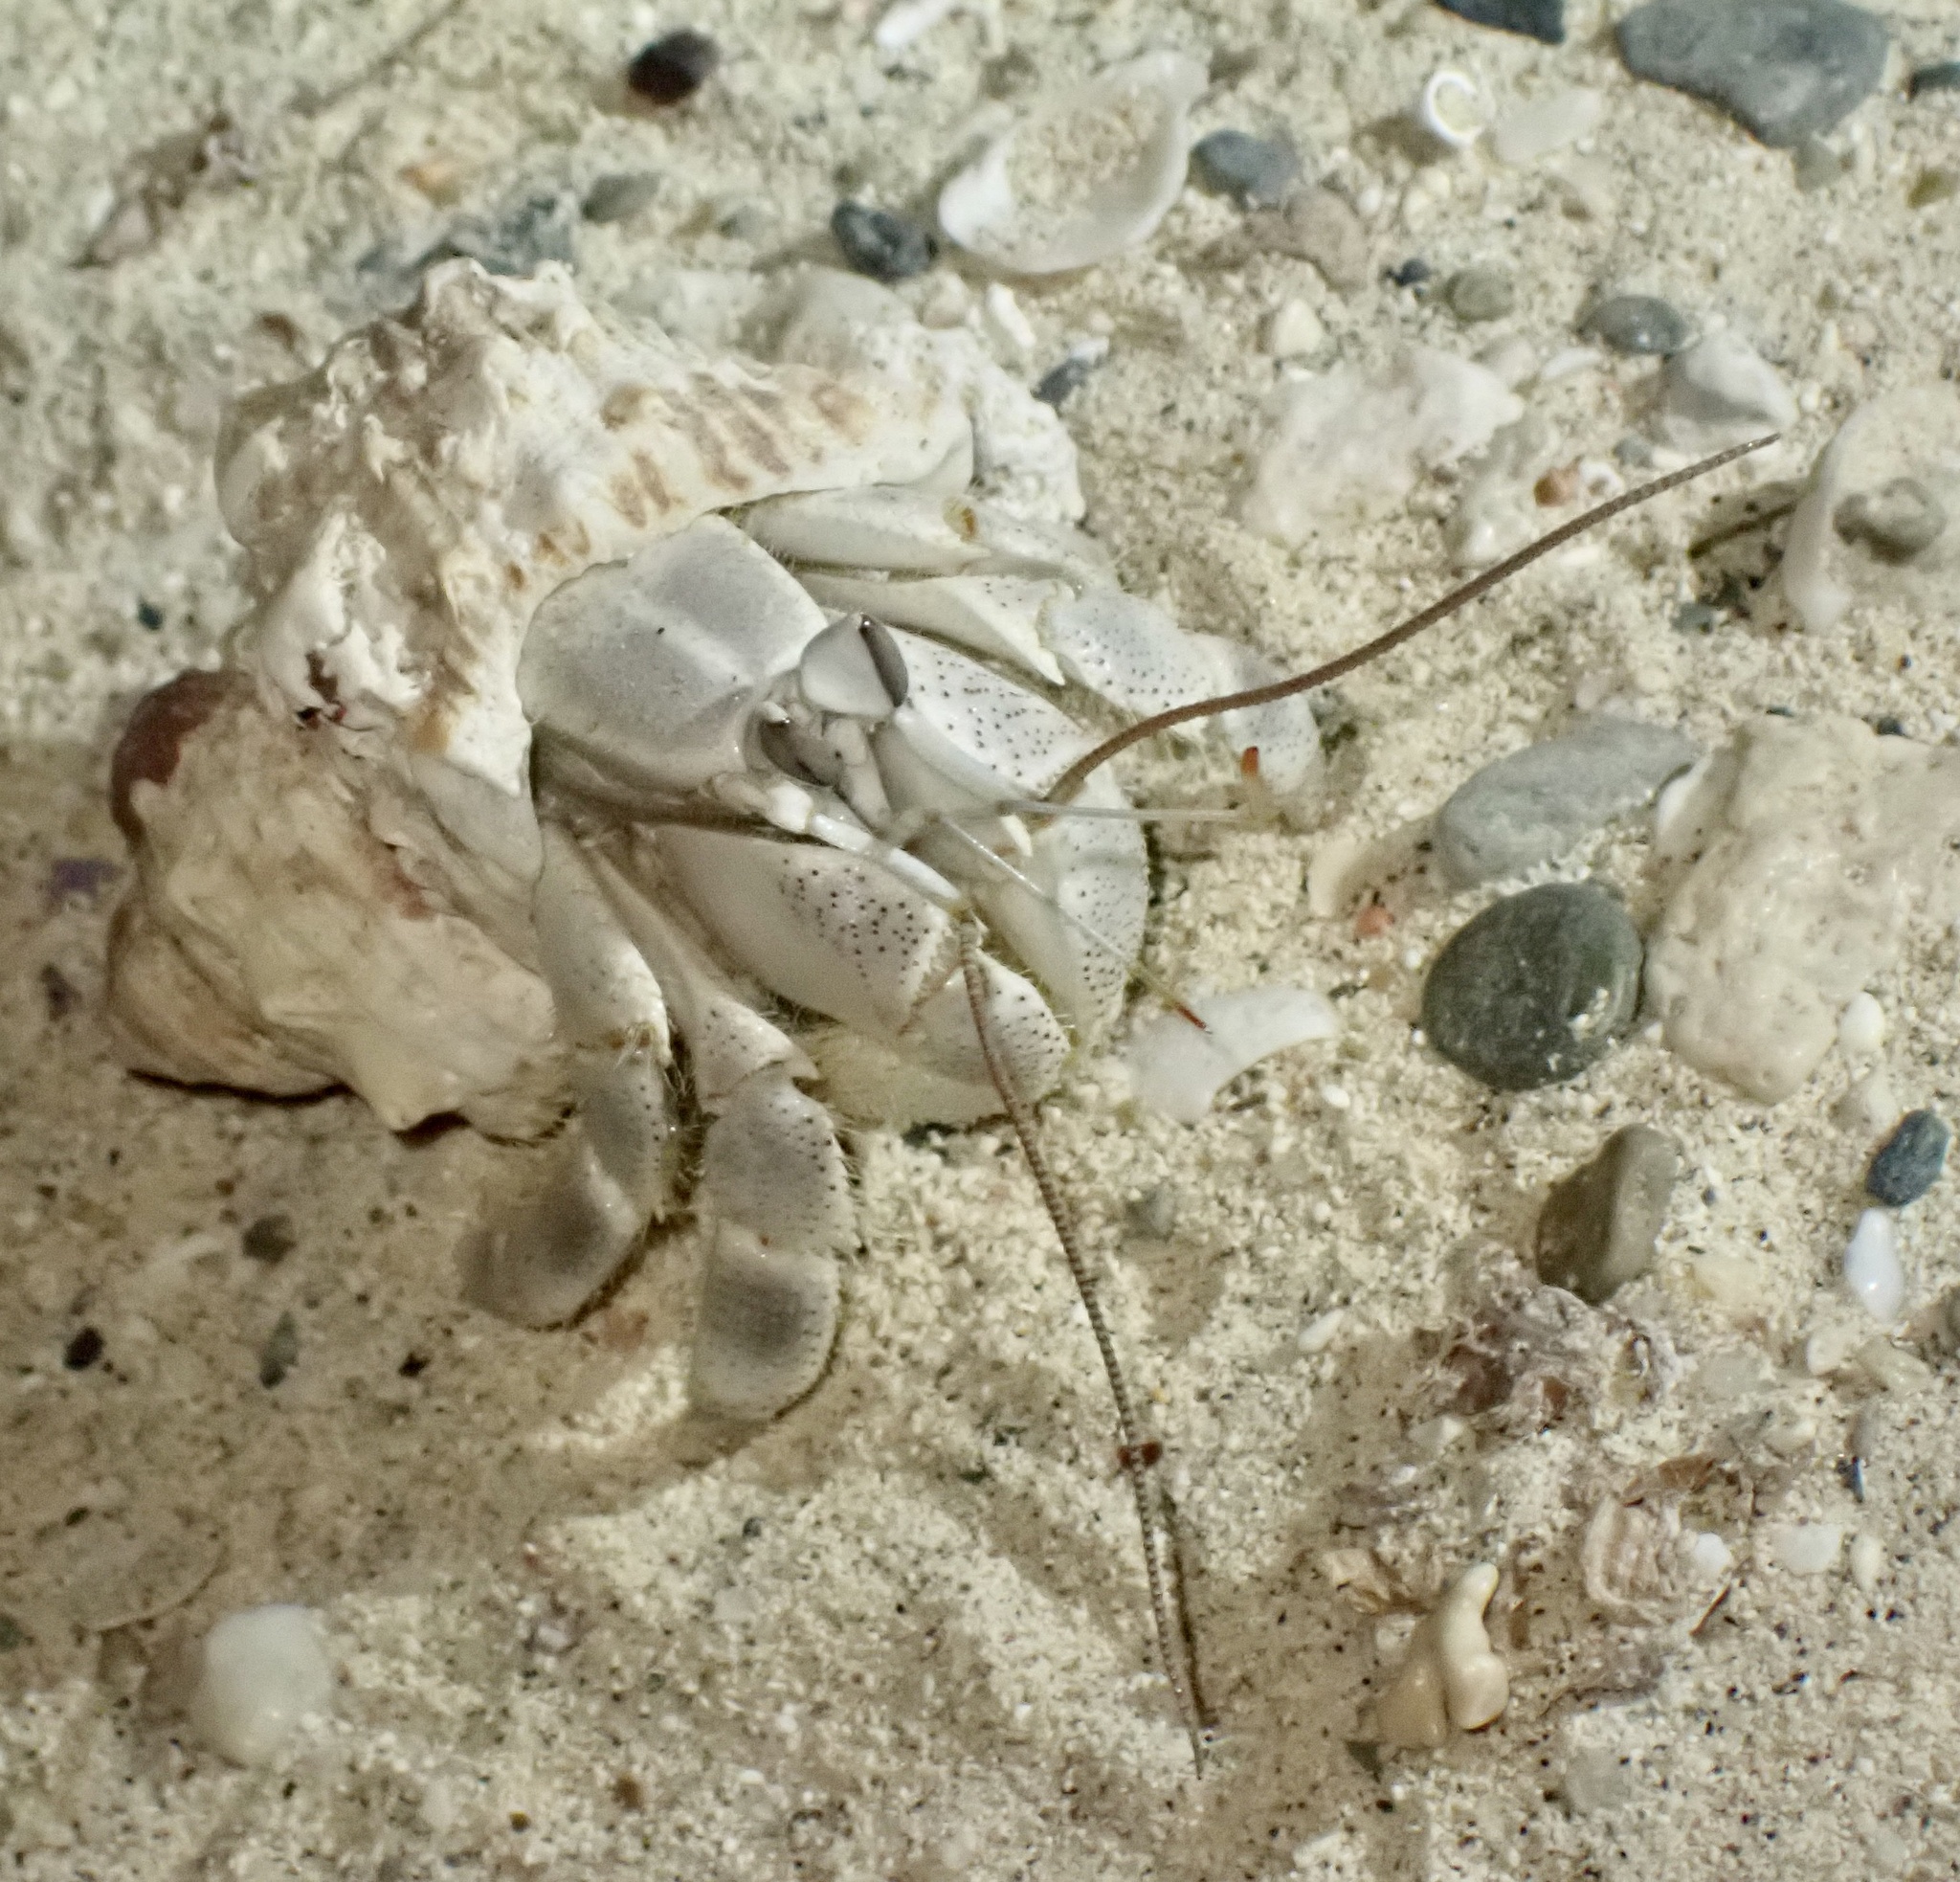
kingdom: Animalia
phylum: Arthropoda
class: Malacostraca
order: Decapoda
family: Coenobitidae
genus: Coenobita
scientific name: Coenobita scaevola
